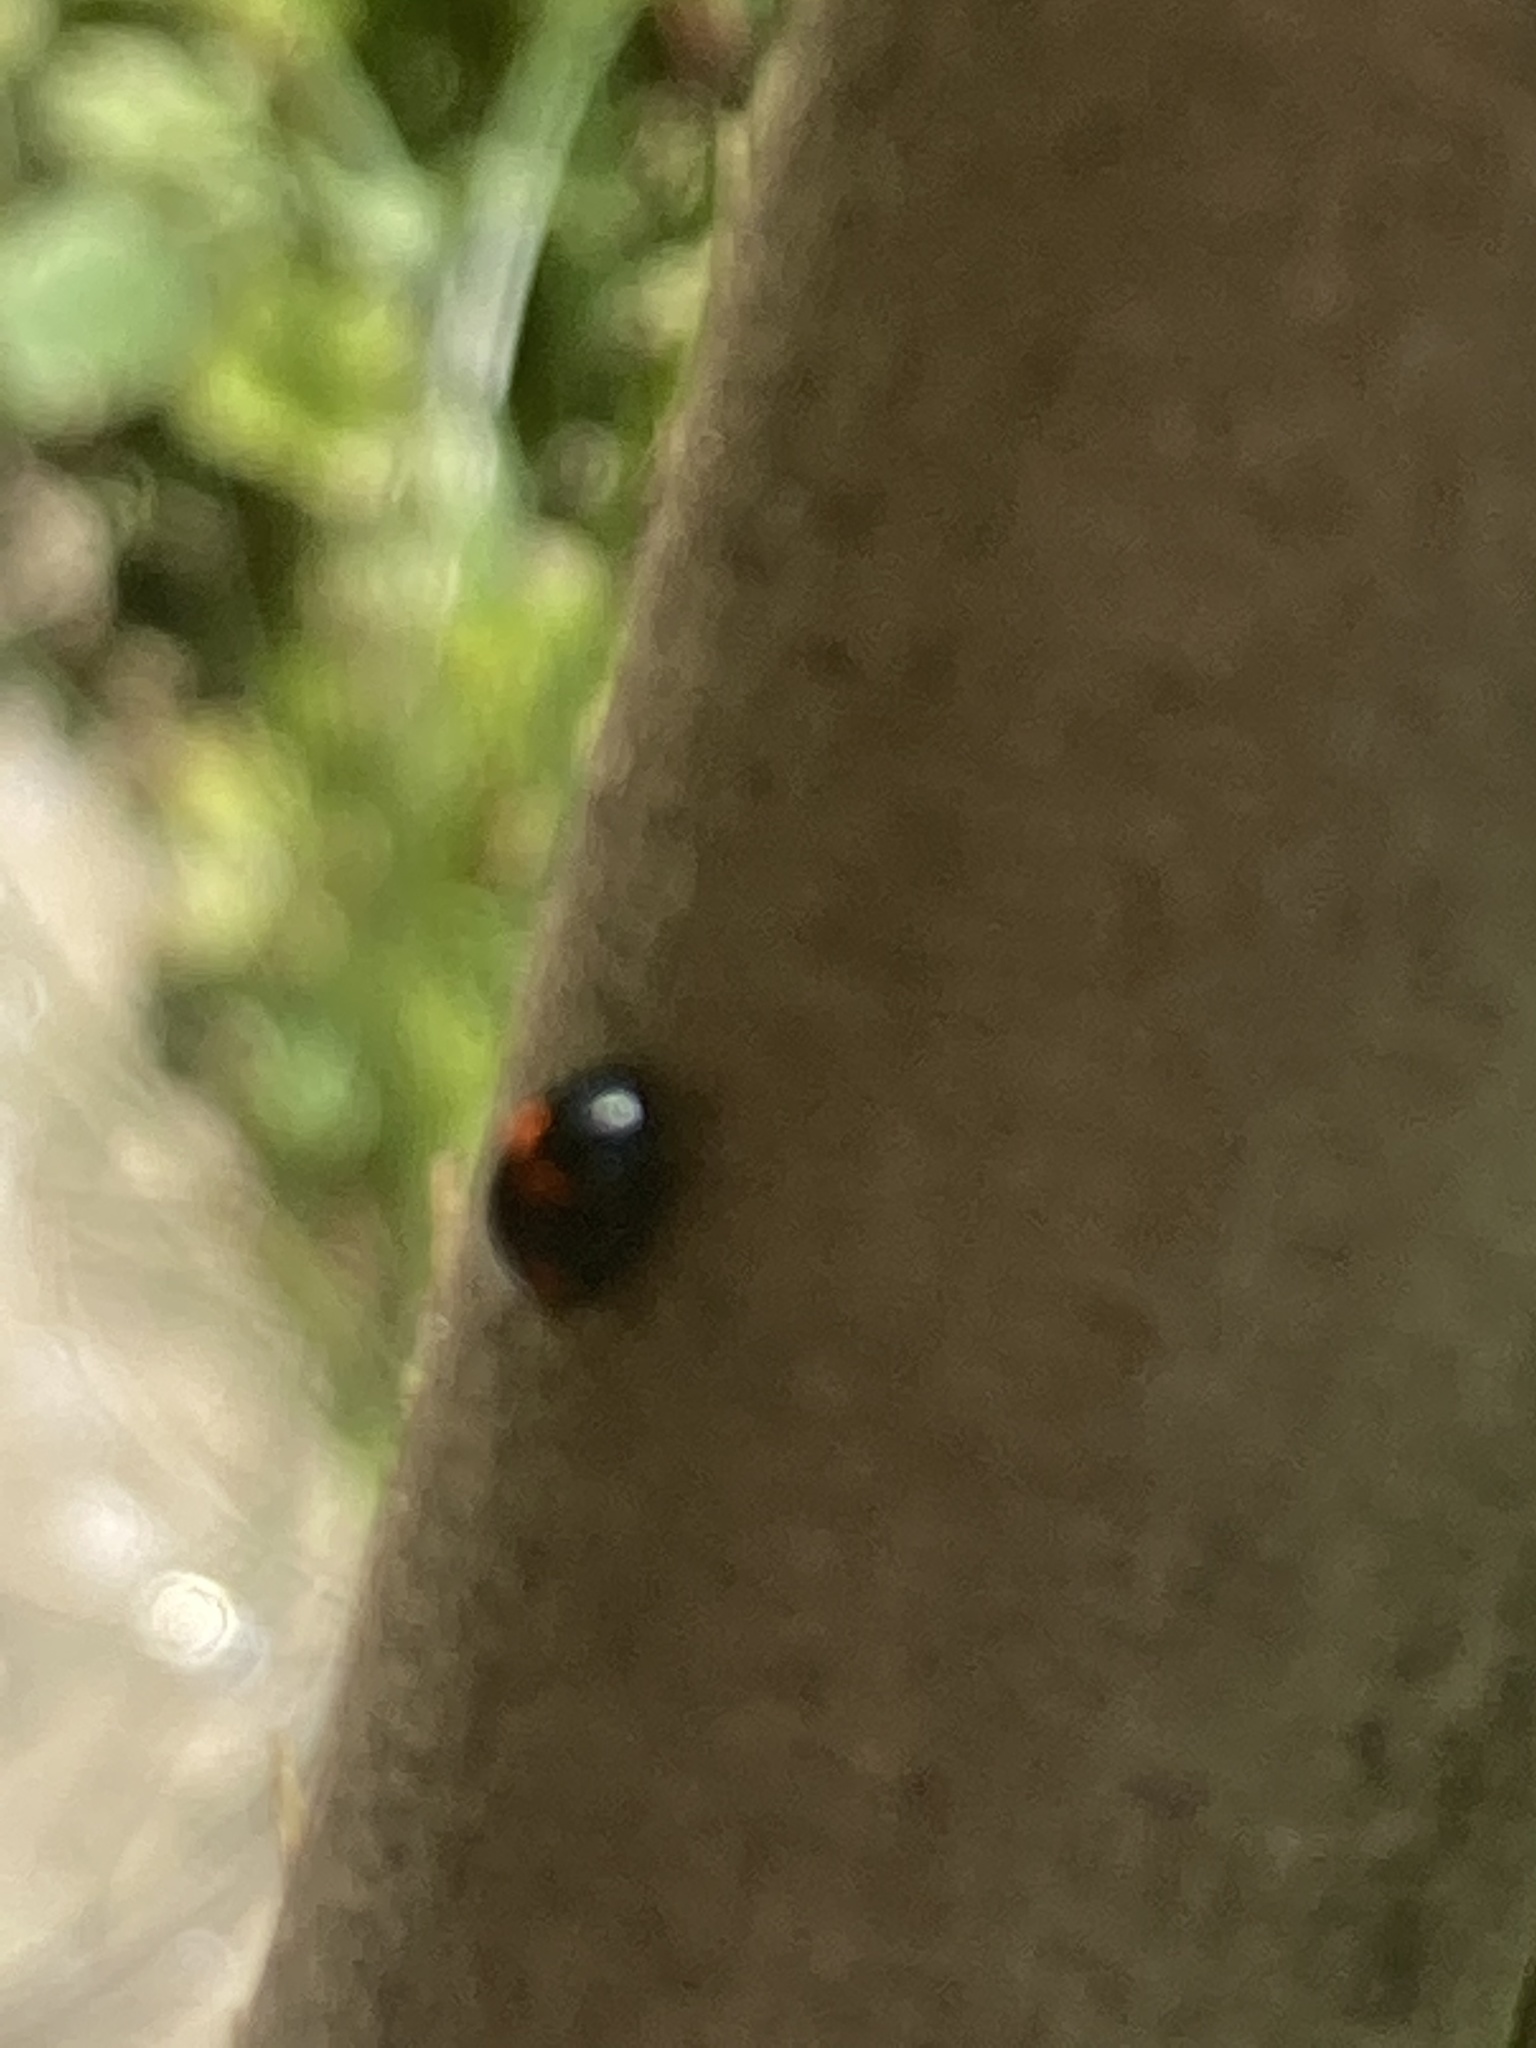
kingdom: Animalia
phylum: Arthropoda
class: Insecta
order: Coleoptera
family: Coccinellidae
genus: Brumus
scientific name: Brumus quadripustulatus
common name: Ladybird beetle
